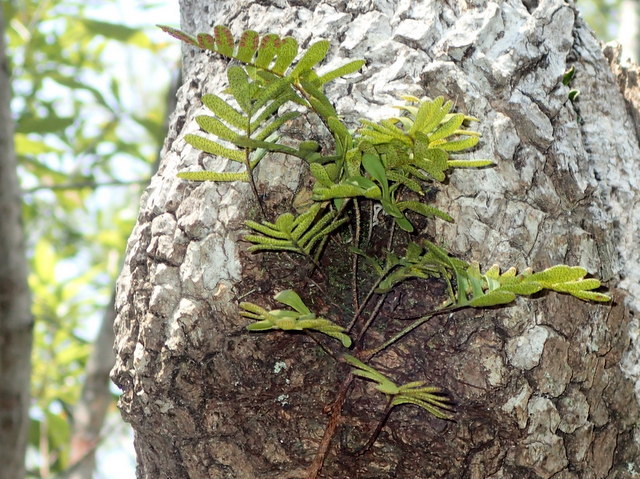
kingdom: Plantae
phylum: Tracheophyta
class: Polypodiopsida
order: Polypodiales
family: Polypodiaceae
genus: Pleopeltis
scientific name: Pleopeltis michauxiana
